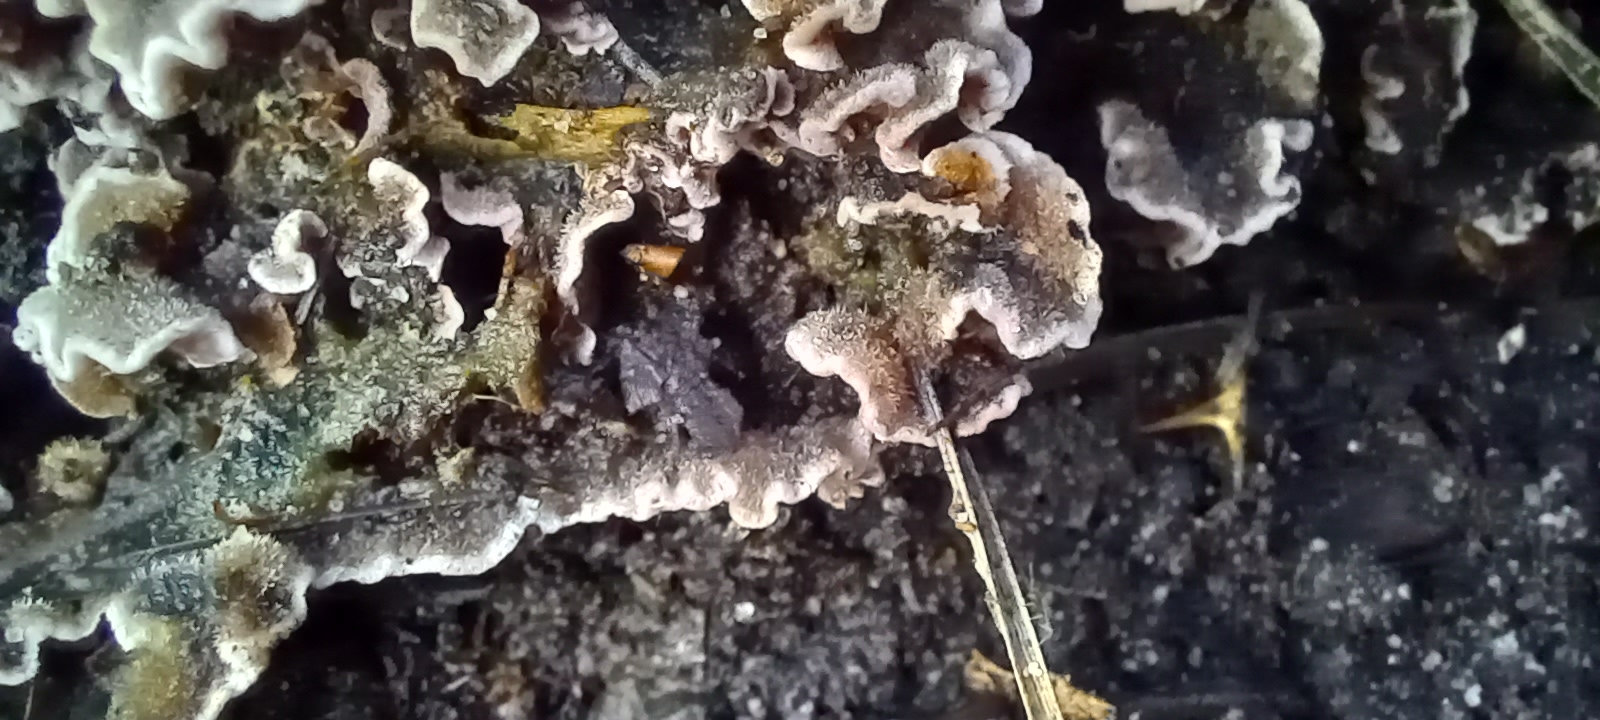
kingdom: Fungi
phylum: Basidiomycota
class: Agaricomycetes
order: Agaricales
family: Cyphellaceae
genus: Chondrostereum
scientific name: Chondrostereum purpureum
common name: Silver leaf disease
